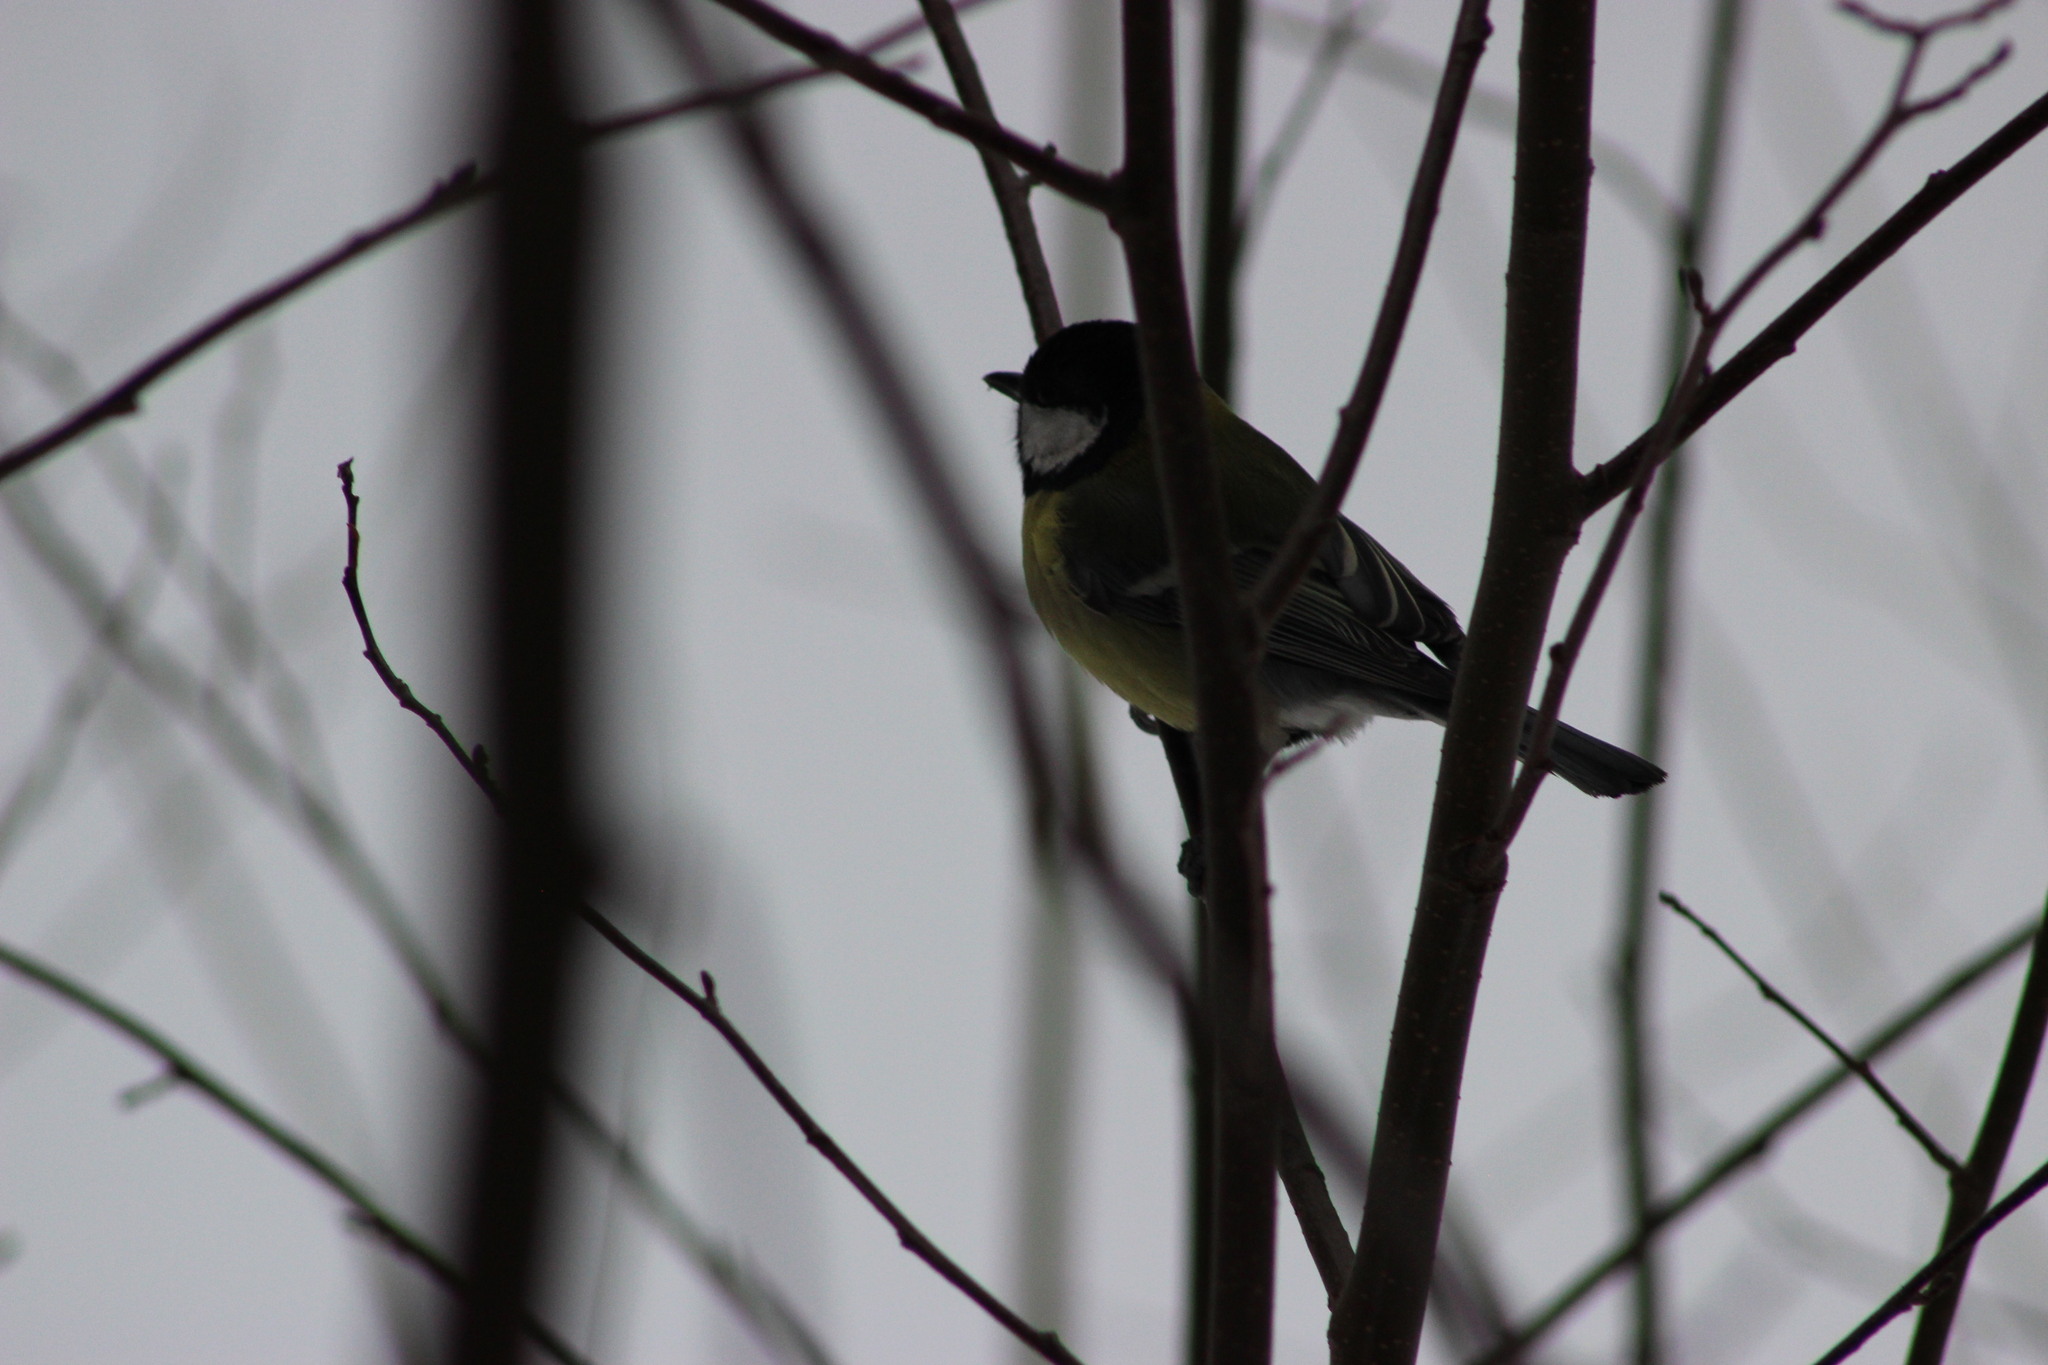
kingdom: Animalia
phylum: Chordata
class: Aves
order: Passeriformes
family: Paridae
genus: Parus
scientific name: Parus major
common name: Great tit
